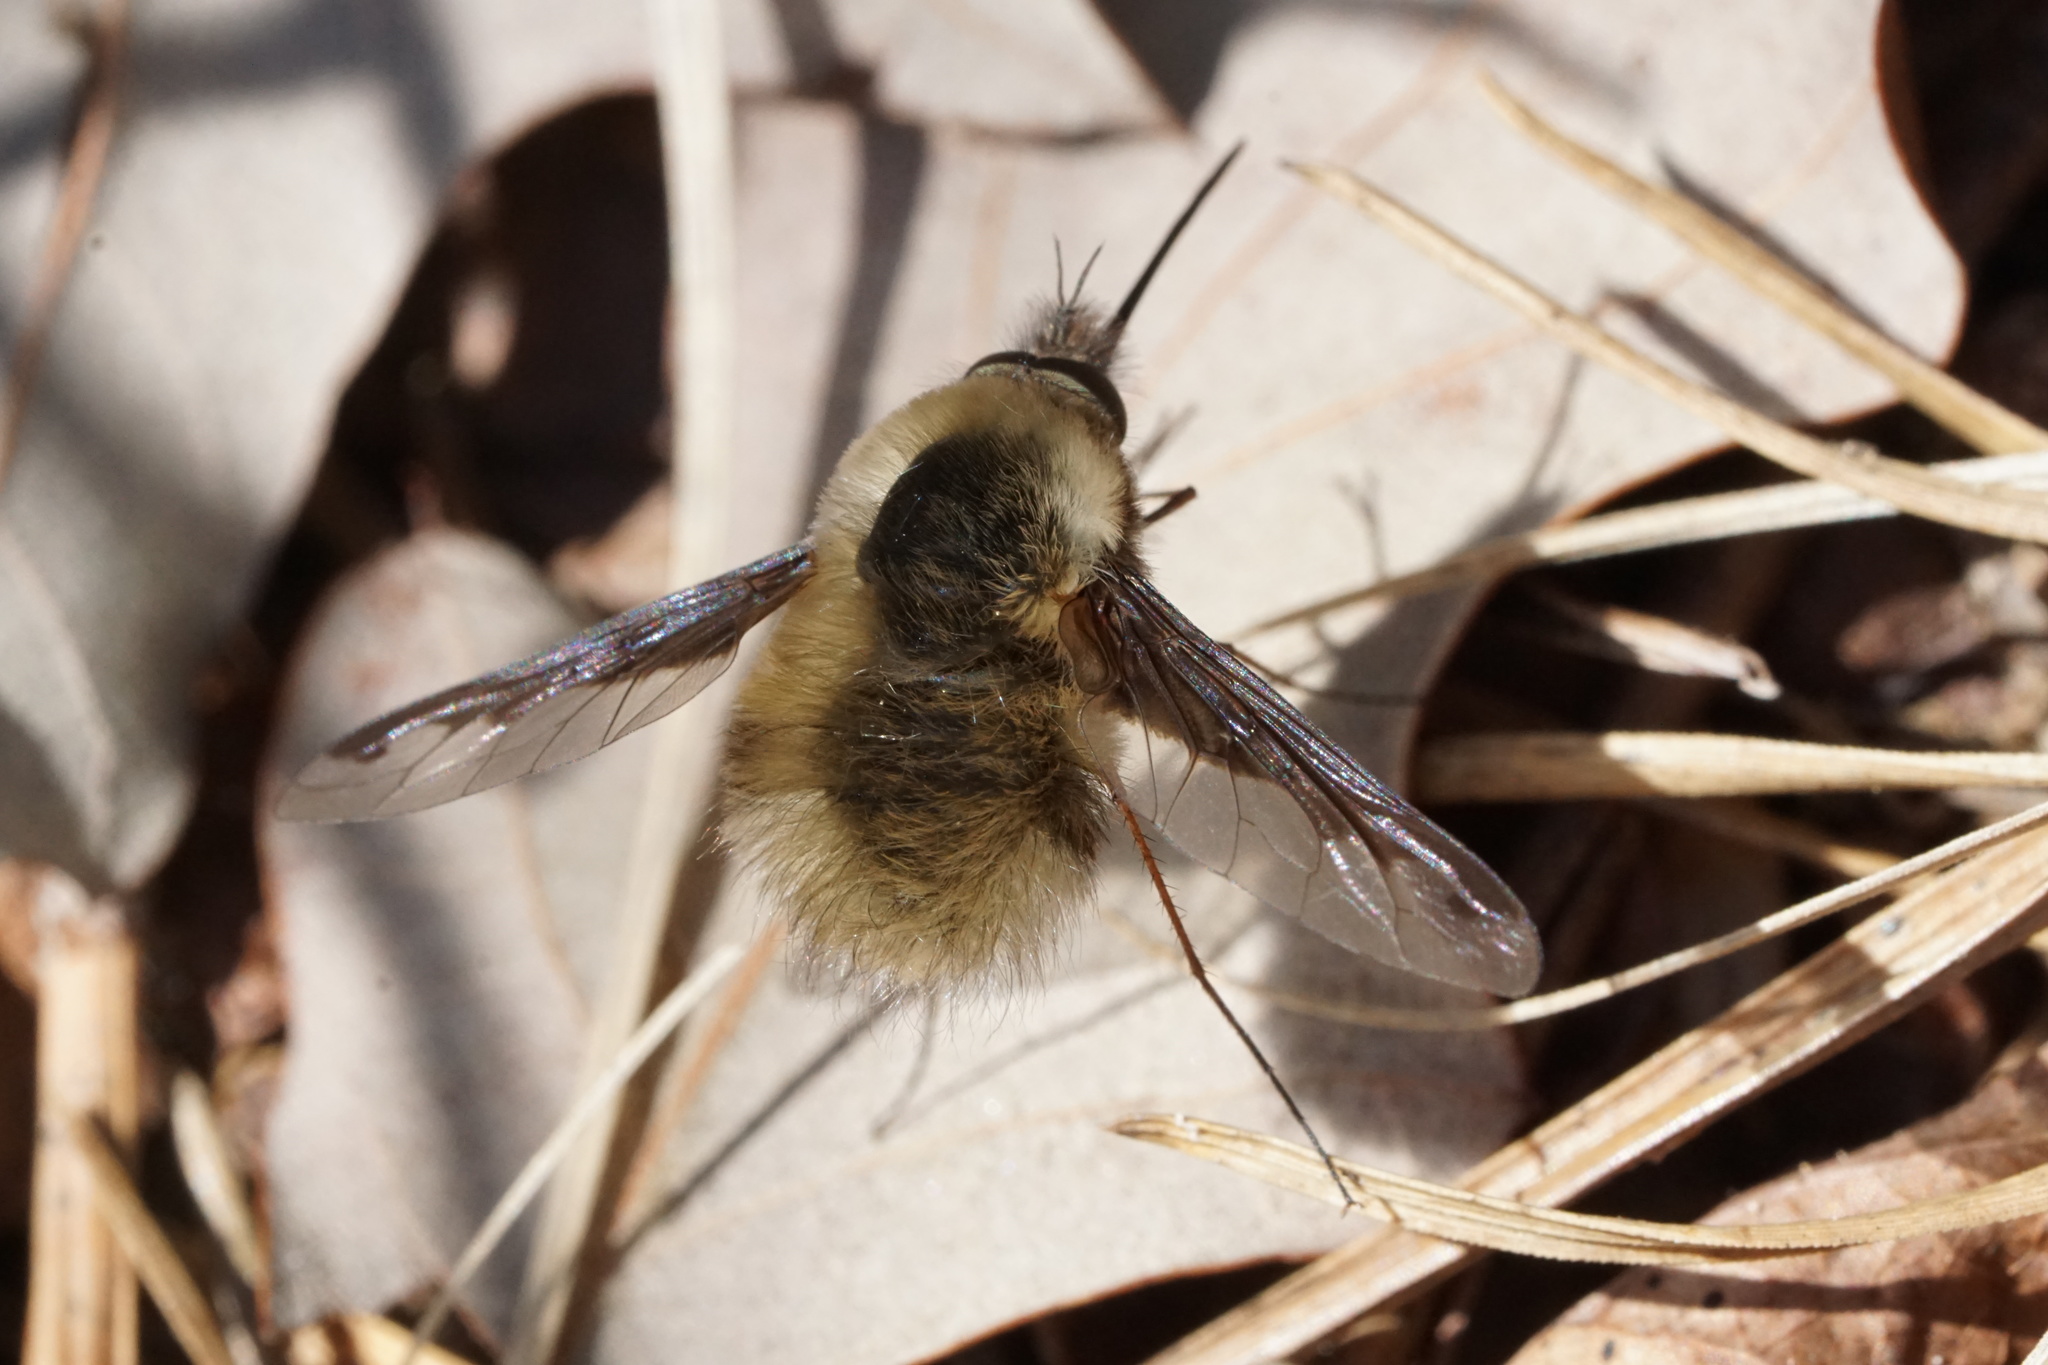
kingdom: Animalia
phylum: Arthropoda
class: Insecta
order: Diptera
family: Bombyliidae
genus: Bombylius
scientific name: Bombylius major
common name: Bee fly
